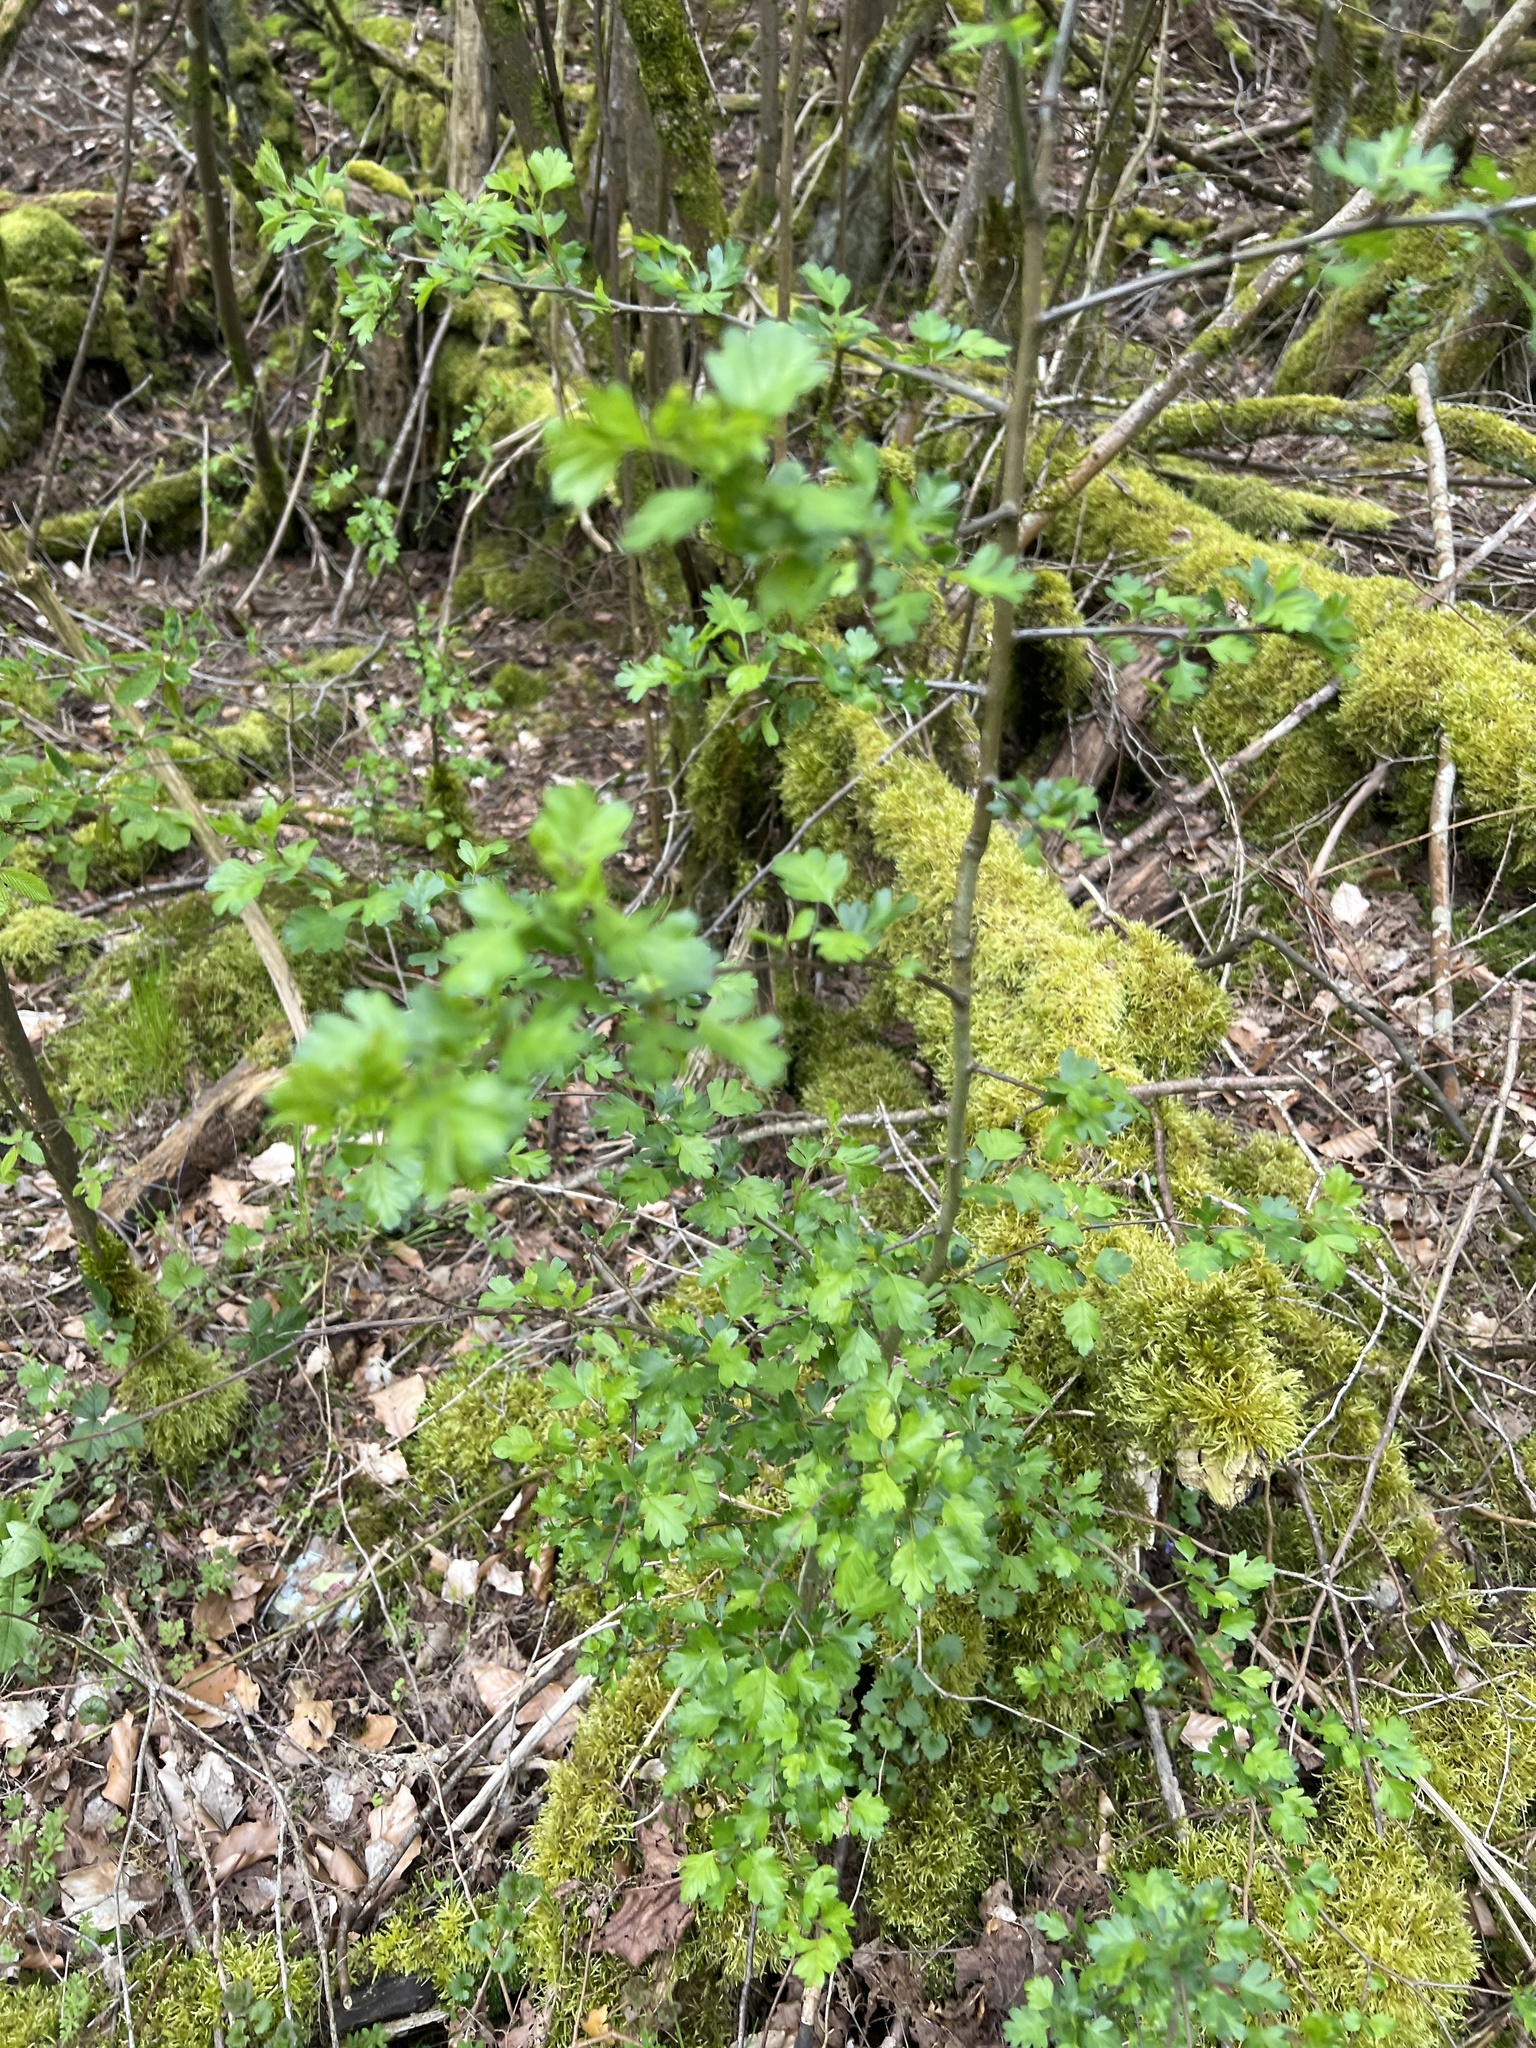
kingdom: Plantae
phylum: Tracheophyta
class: Magnoliopsida
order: Rosales
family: Rosaceae
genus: Crataegus
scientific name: Crataegus monogyna
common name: Hawthorn
